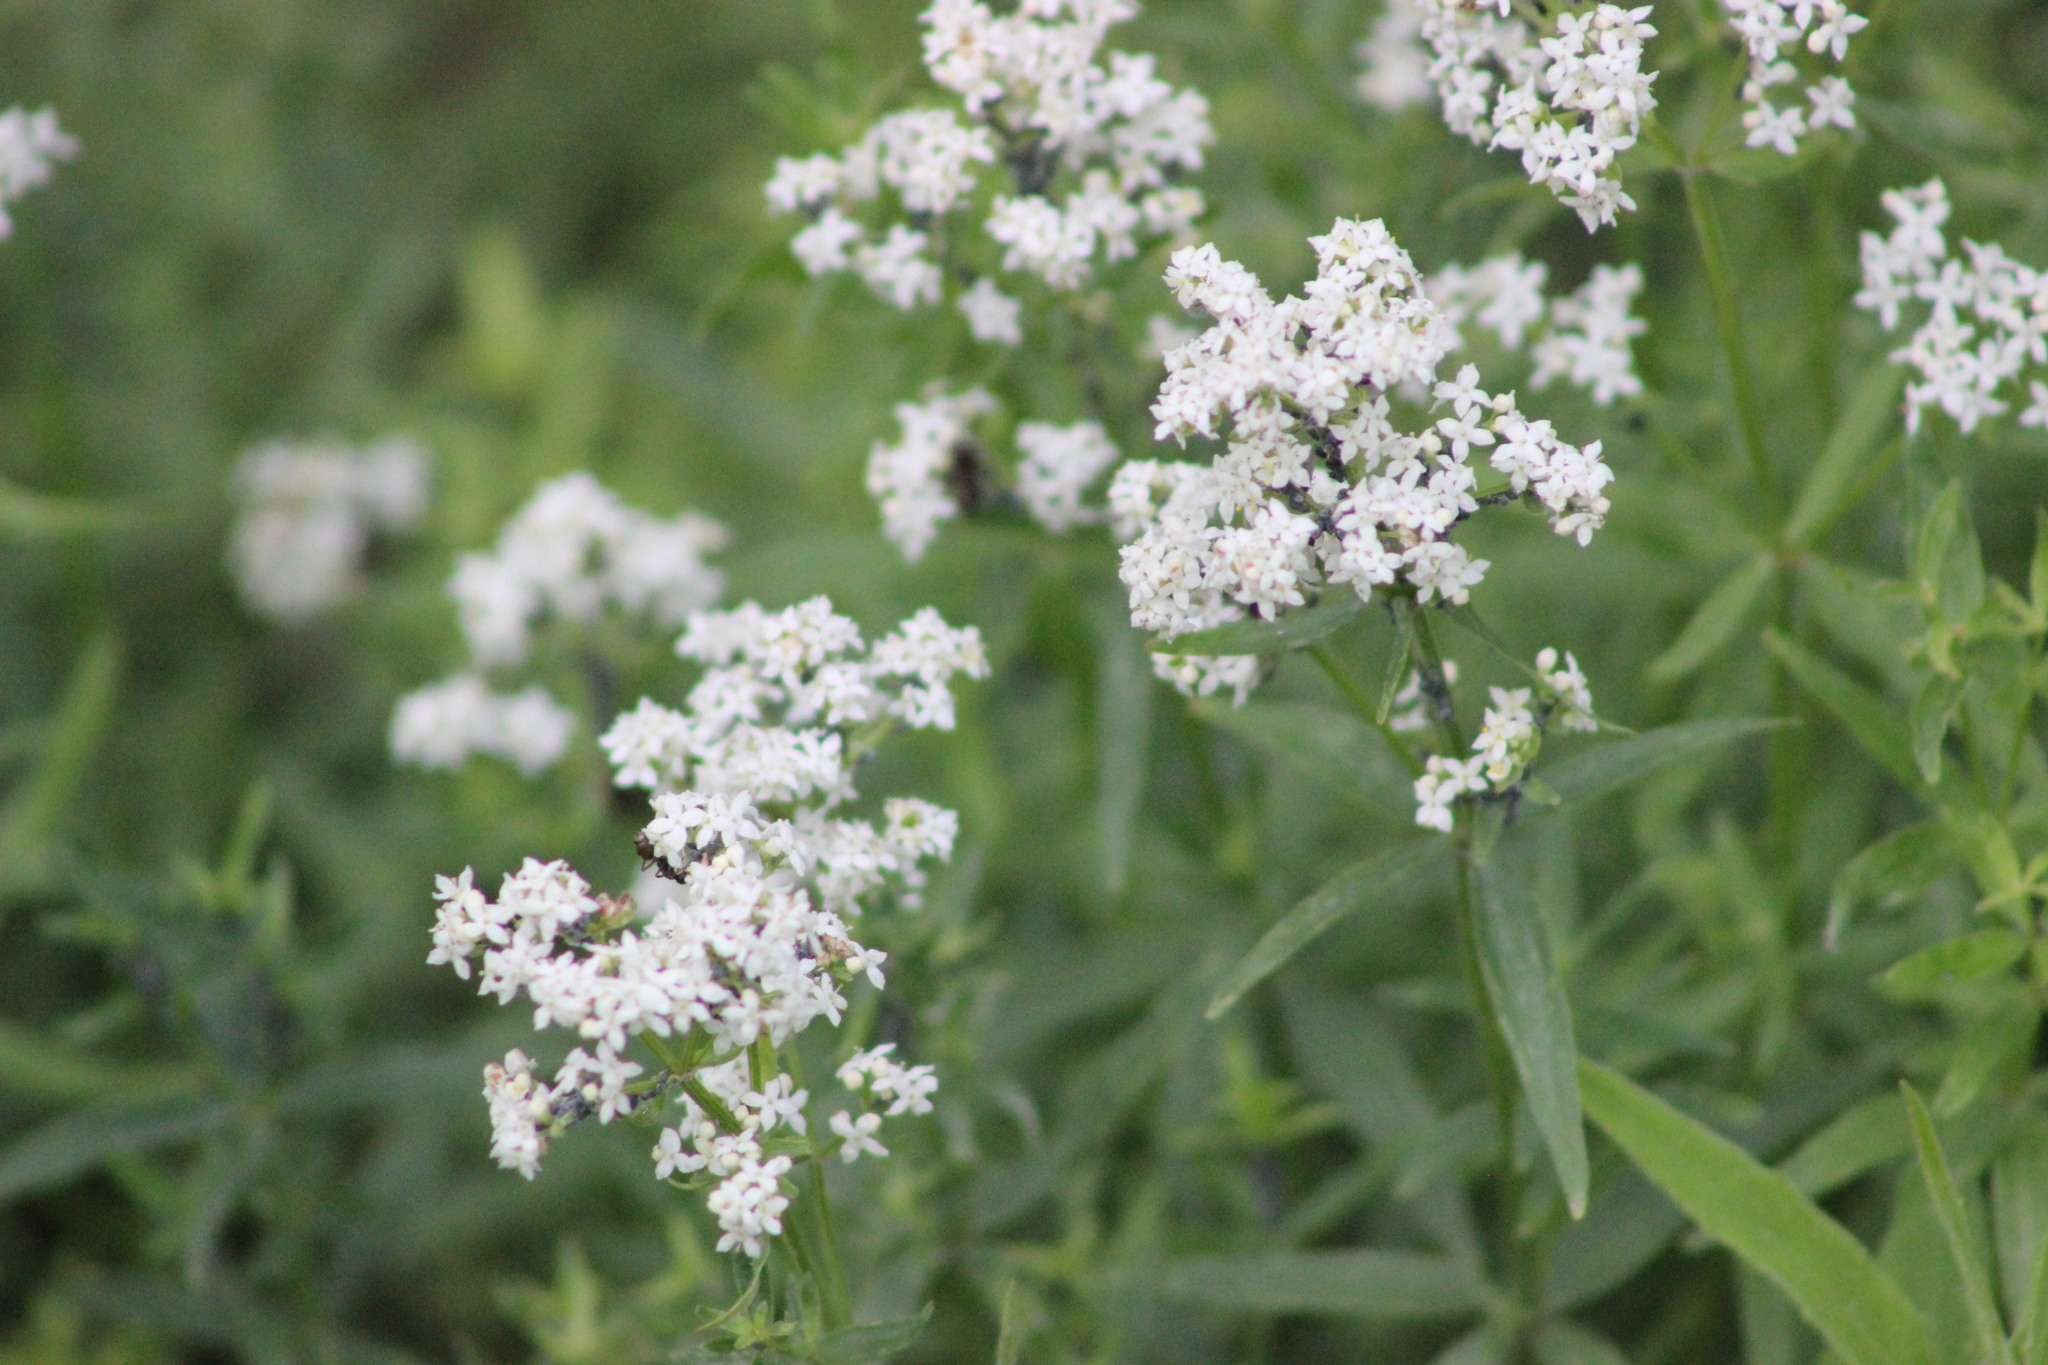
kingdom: Plantae
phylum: Tracheophyta
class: Magnoliopsida
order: Gentianales
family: Rubiaceae
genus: Galium
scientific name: Galium boreale
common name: Northern bedstraw
